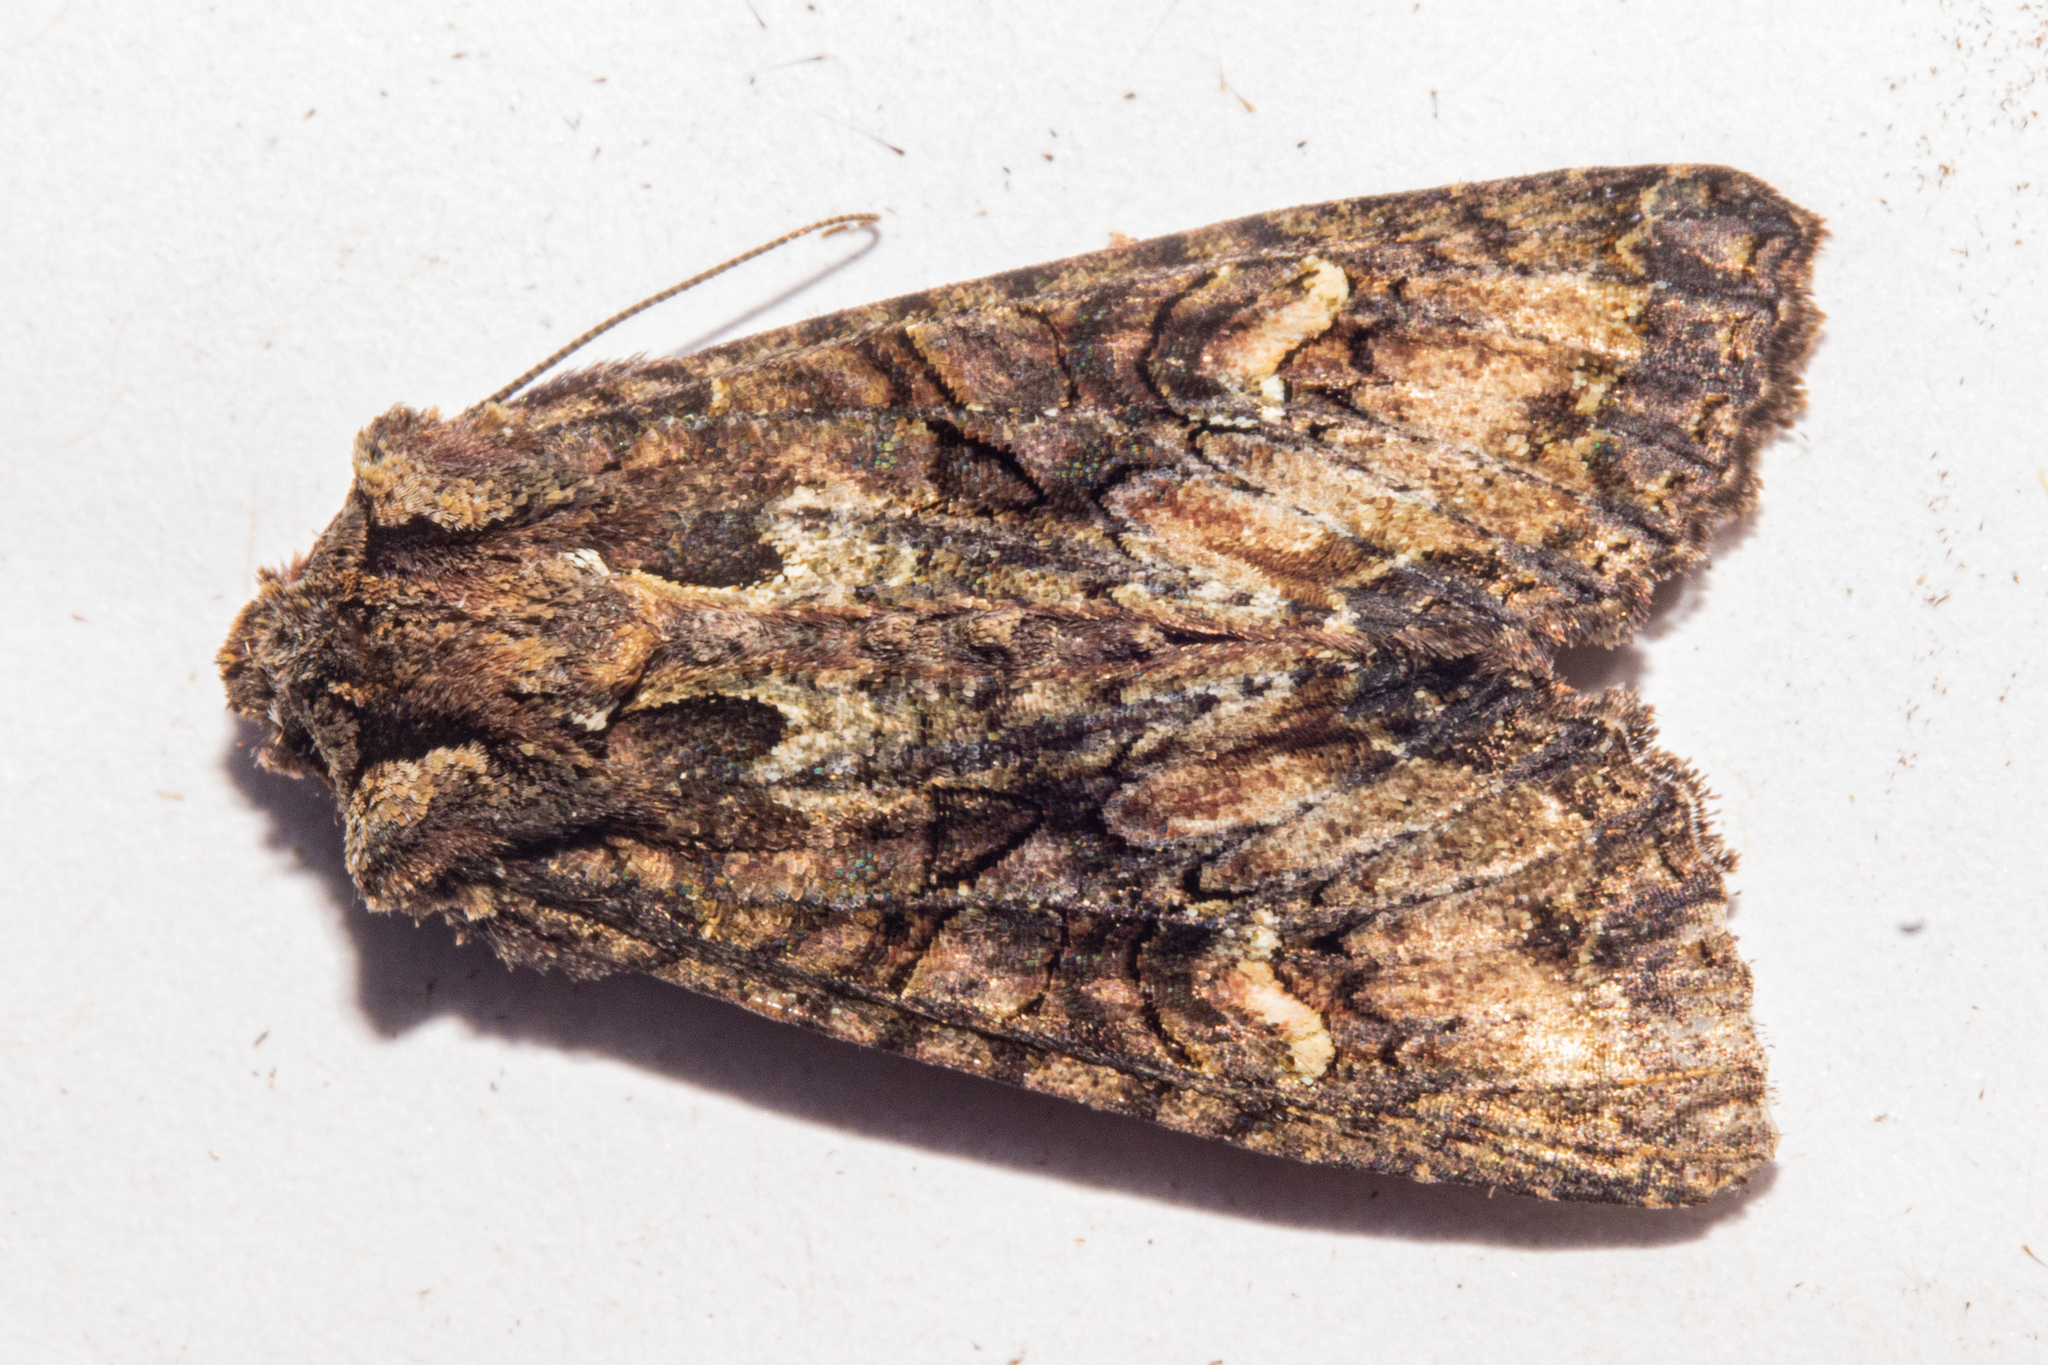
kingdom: Animalia
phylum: Arthropoda
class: Insecta
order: Lepidoptera
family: Noctuidae
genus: Meterana
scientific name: Meterana dotata
